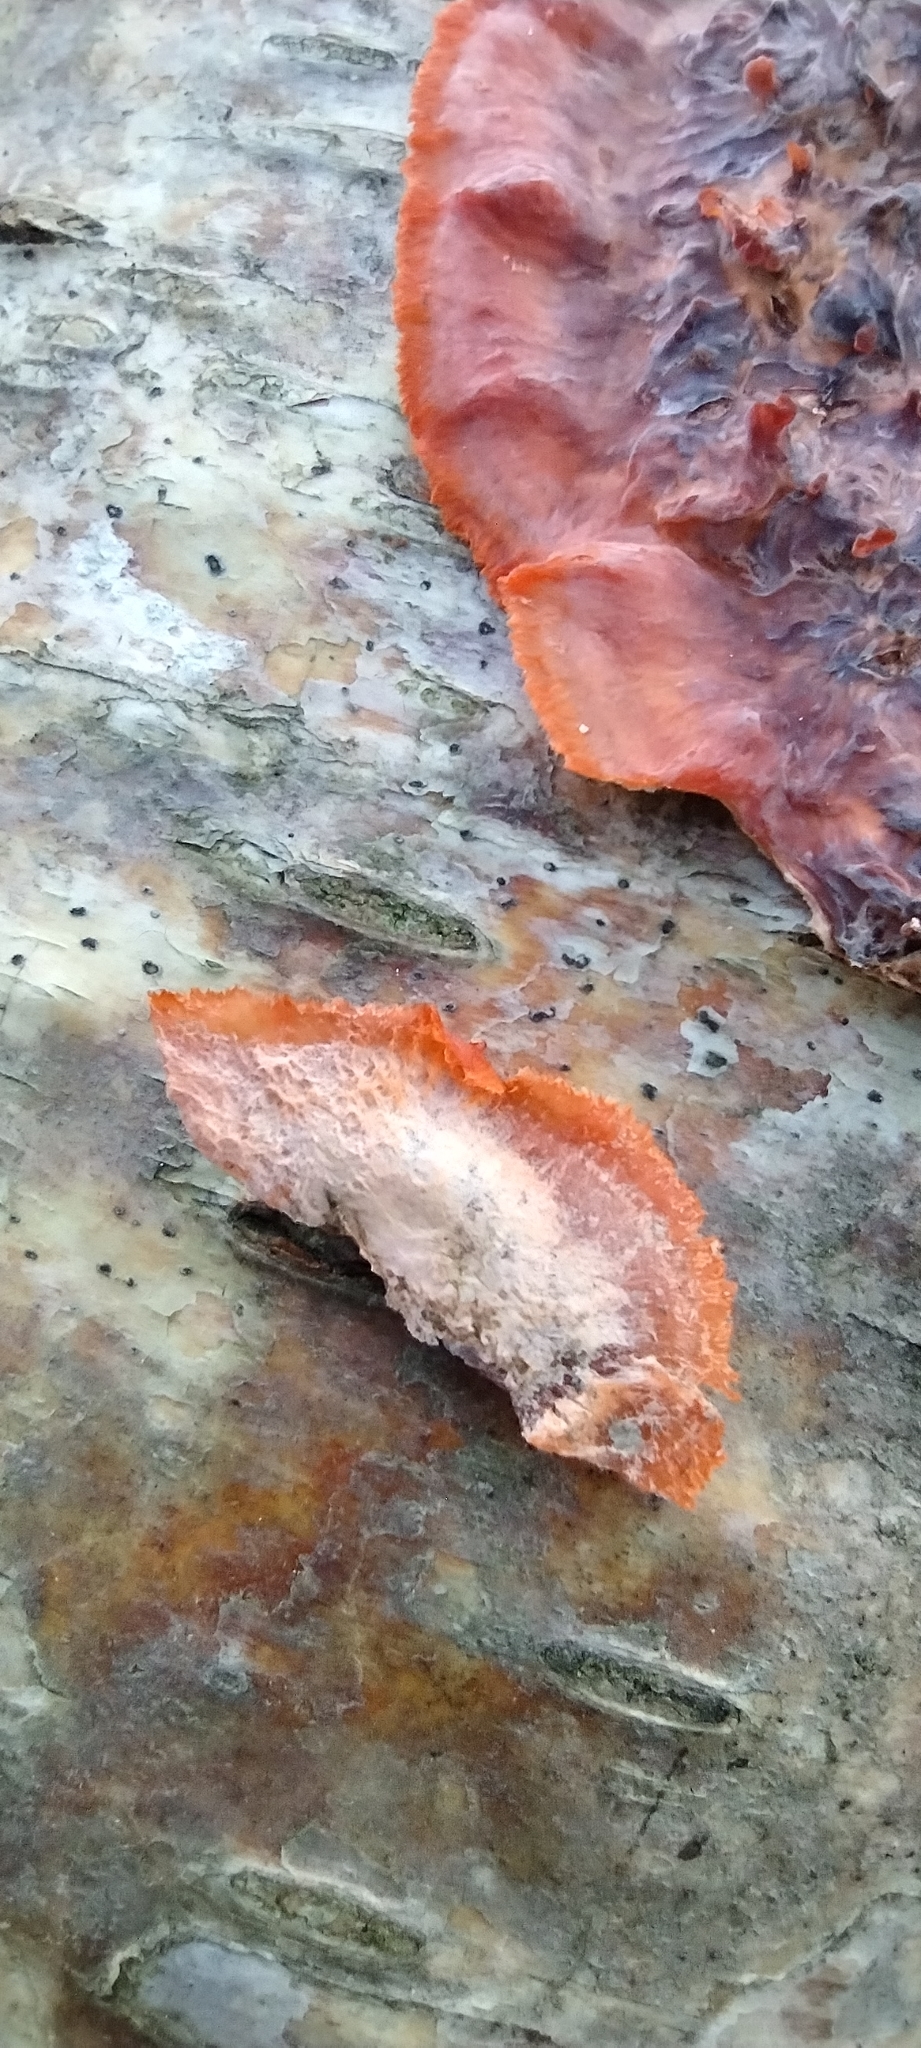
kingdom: Fungi
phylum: Basidiomycota
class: Agaricomycetes
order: Polyporales
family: Meruliaceae
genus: Phlebia
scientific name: Phlebia radiata
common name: Wrinkled crust
